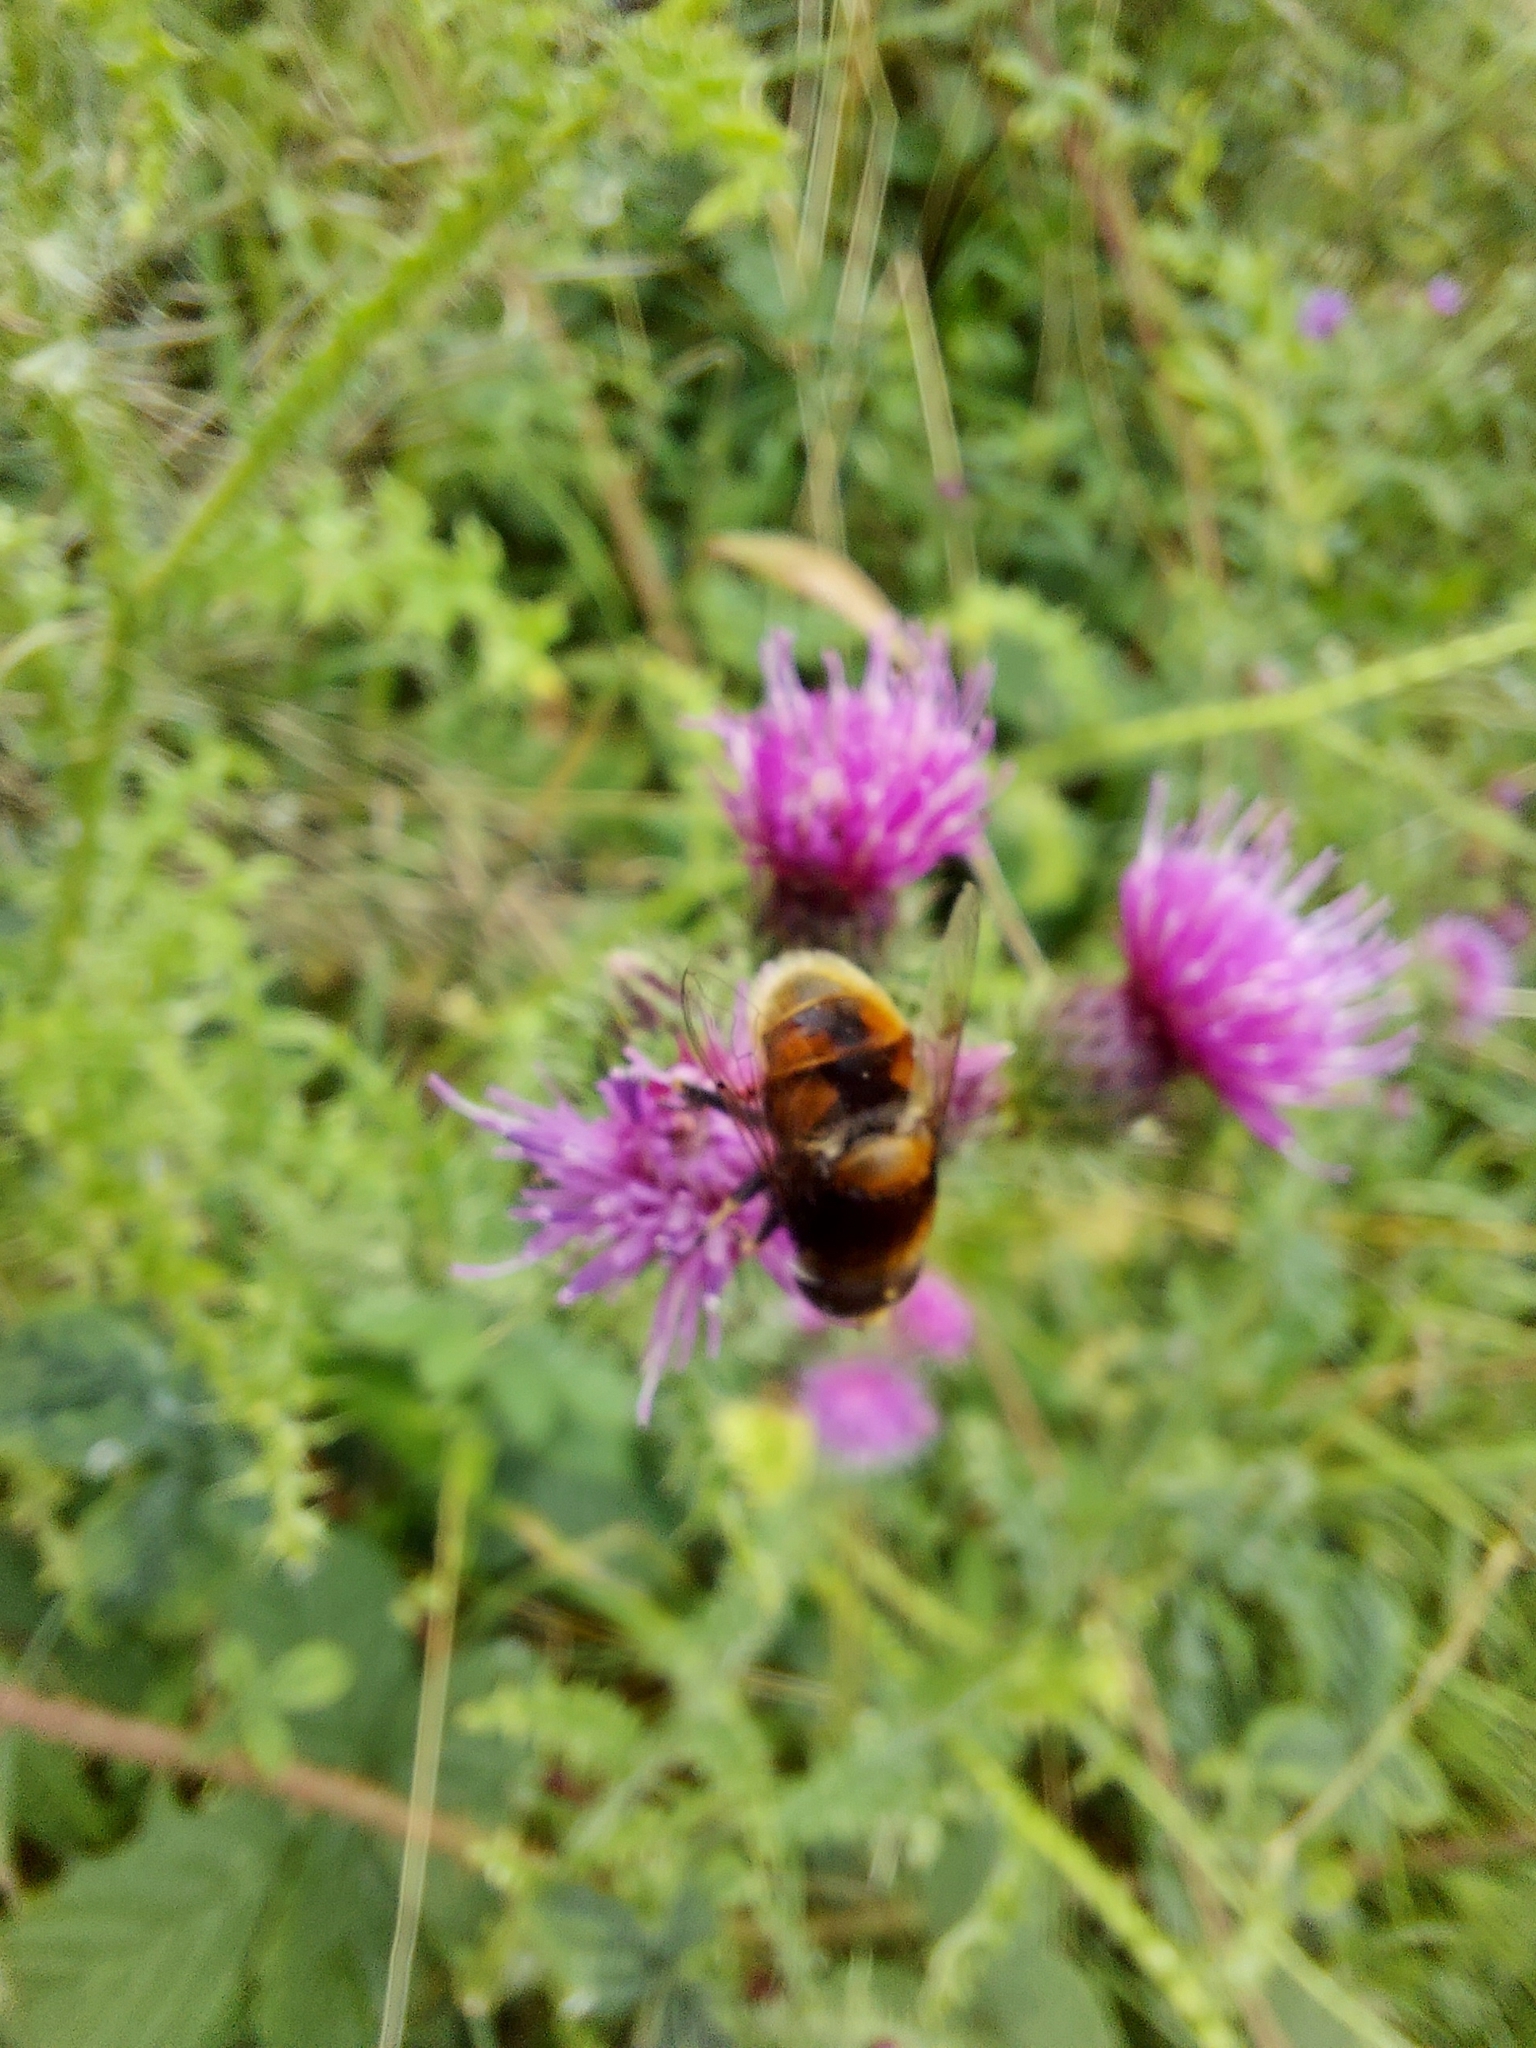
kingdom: Animalia
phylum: Arthropoda
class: Insecta
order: Diptera
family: Syrphidae
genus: Eristalis
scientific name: Eristalis intricaria
